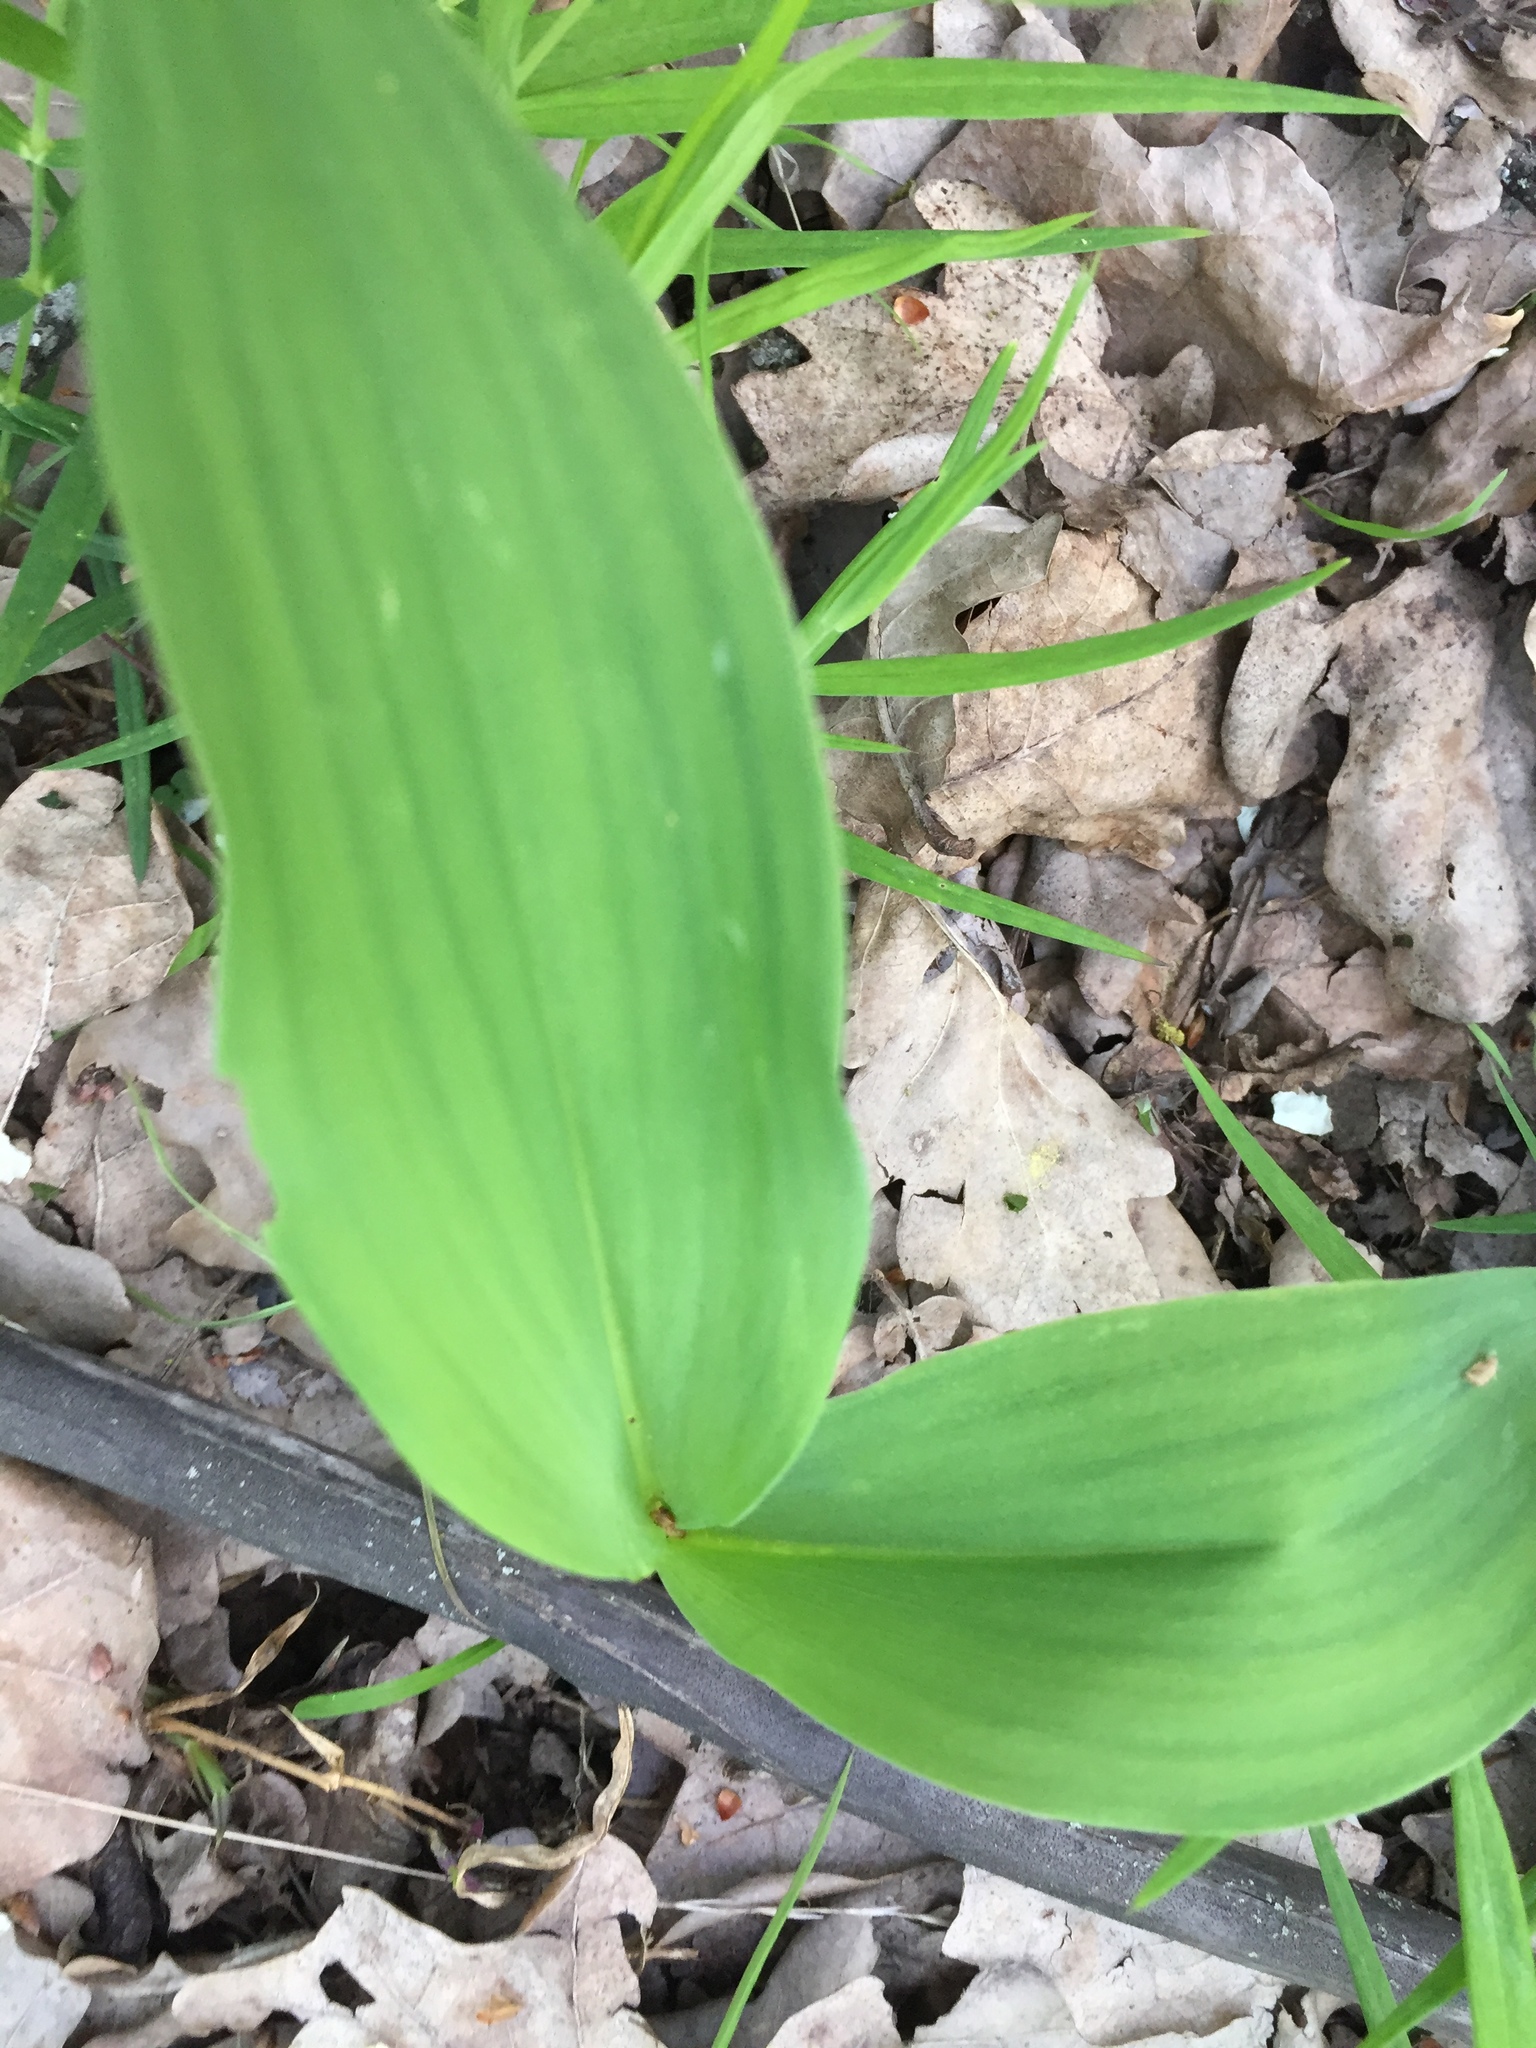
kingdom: Plantae
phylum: Tracheophyta
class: Liliopsida
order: Asparagales
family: Asparagaceae
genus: Convallaria
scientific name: Convallaria majalis
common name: Lily-of-the-valley
